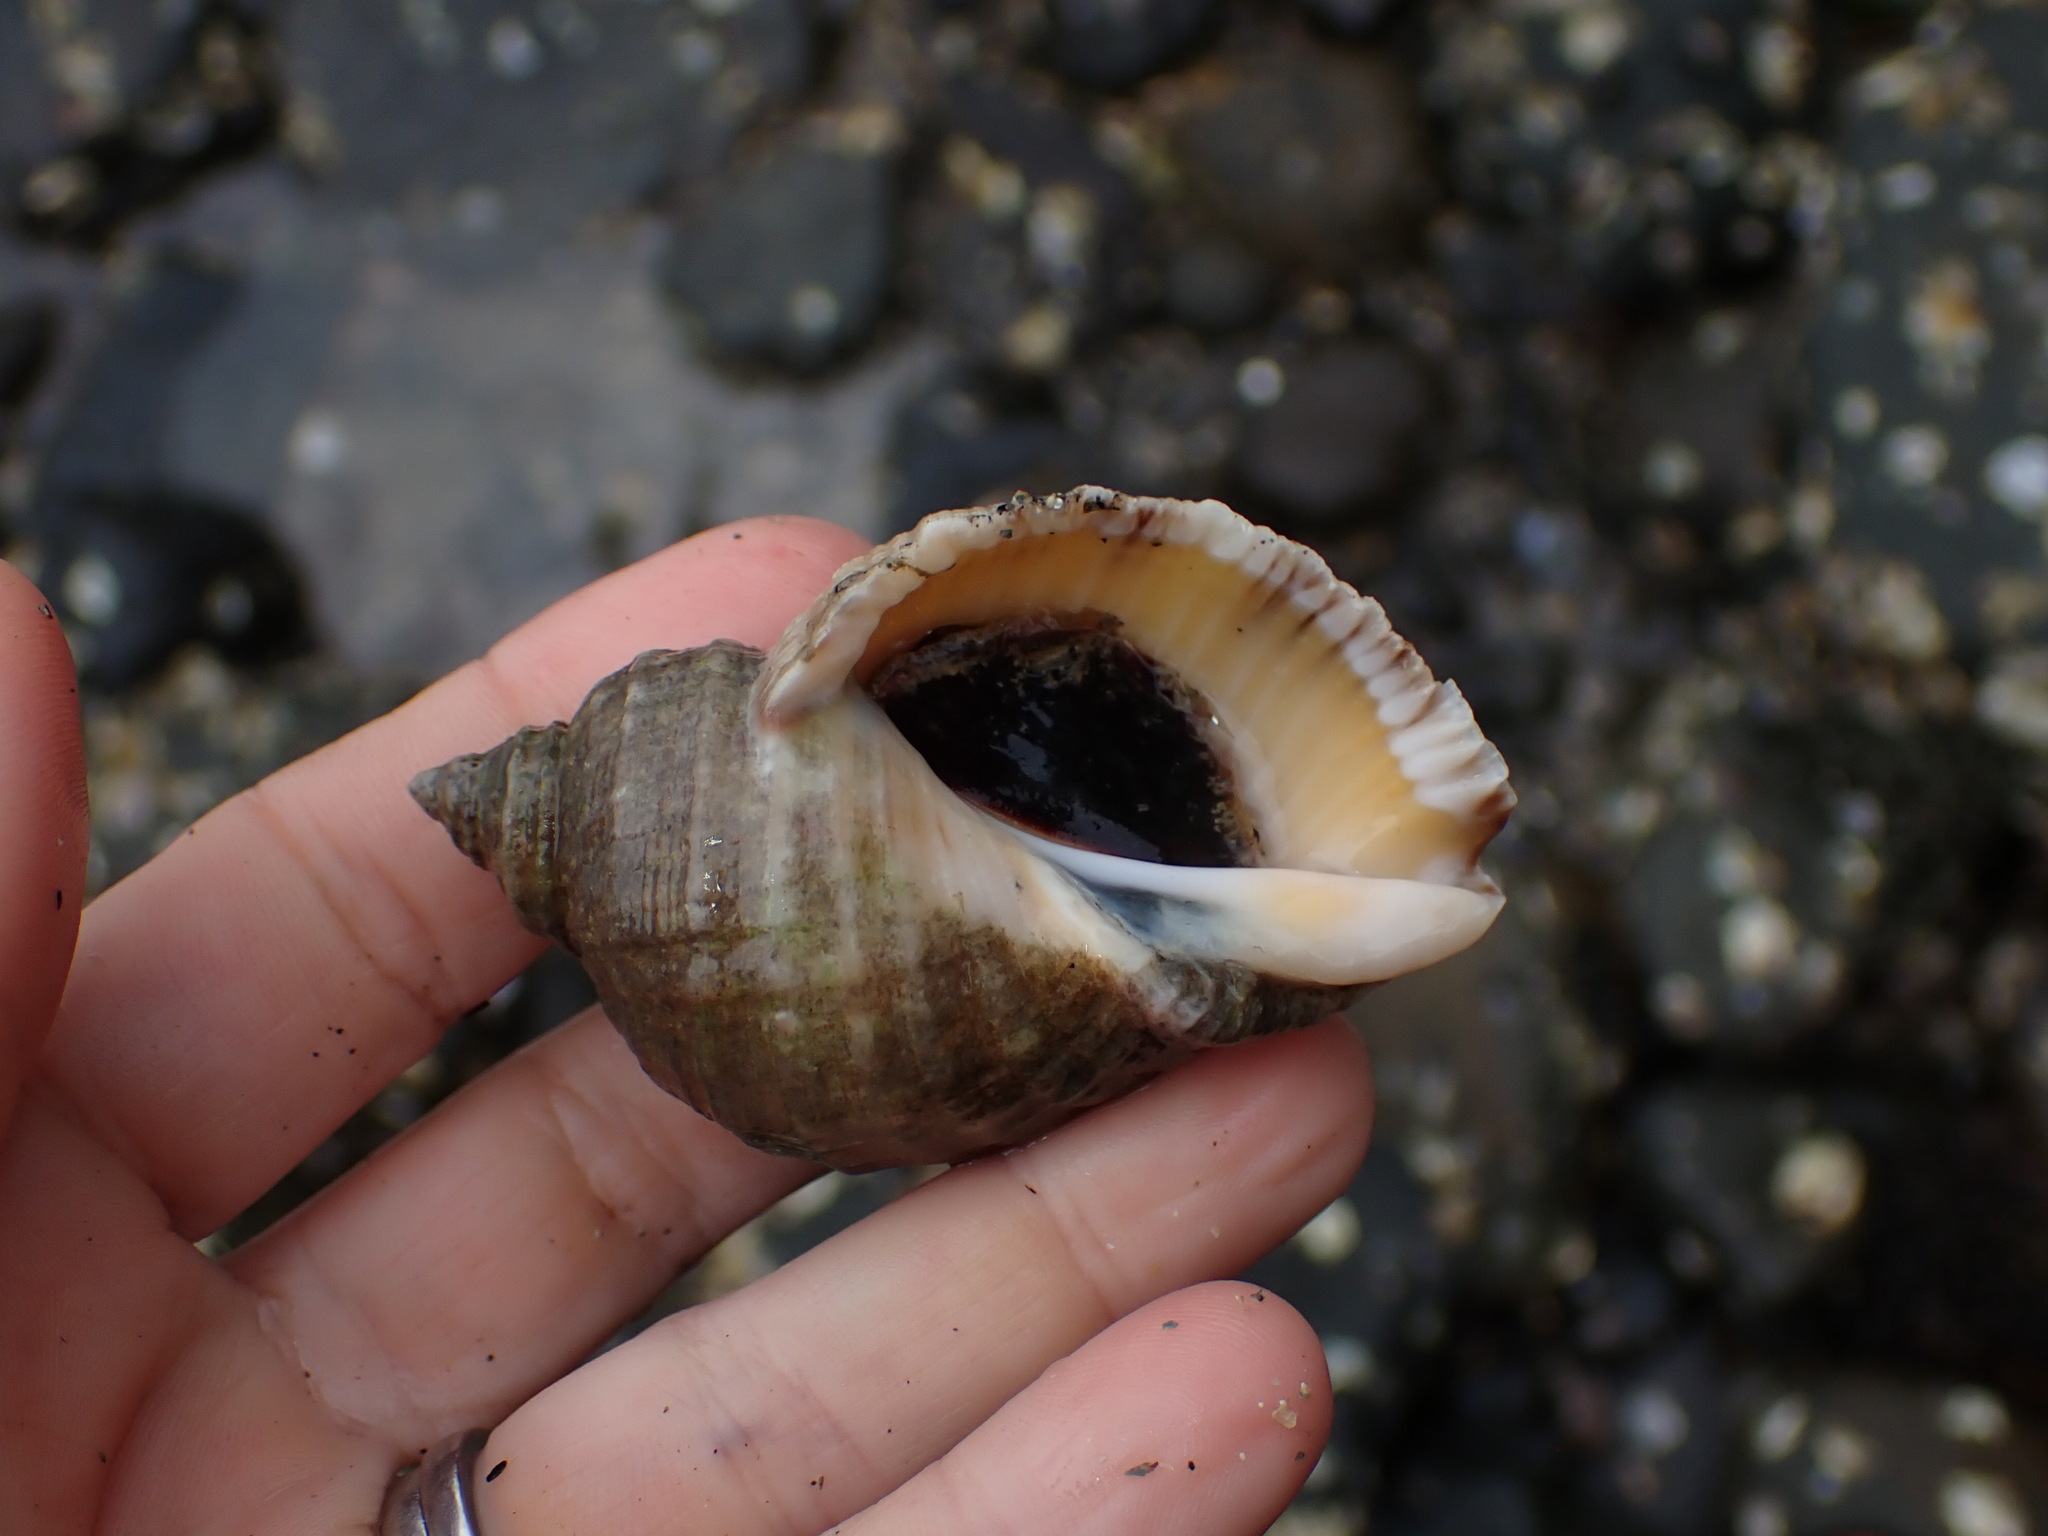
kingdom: Animalia
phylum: Mollusca
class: Gastropoda
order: Neogastropoda
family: Muricidae
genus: Dicathais
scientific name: Dicathais orbita
